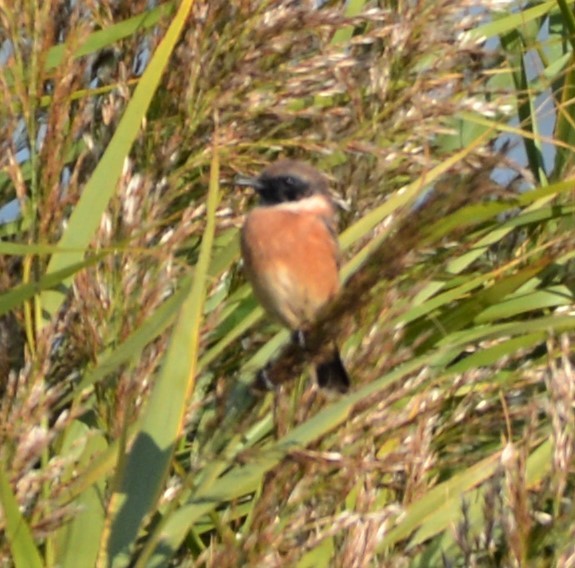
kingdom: Animalia
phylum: Chordata
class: Aves
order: Passeriformes
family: Muscicapidae
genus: Saxicola
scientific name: Saxicola rubicola
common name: European stonechat
